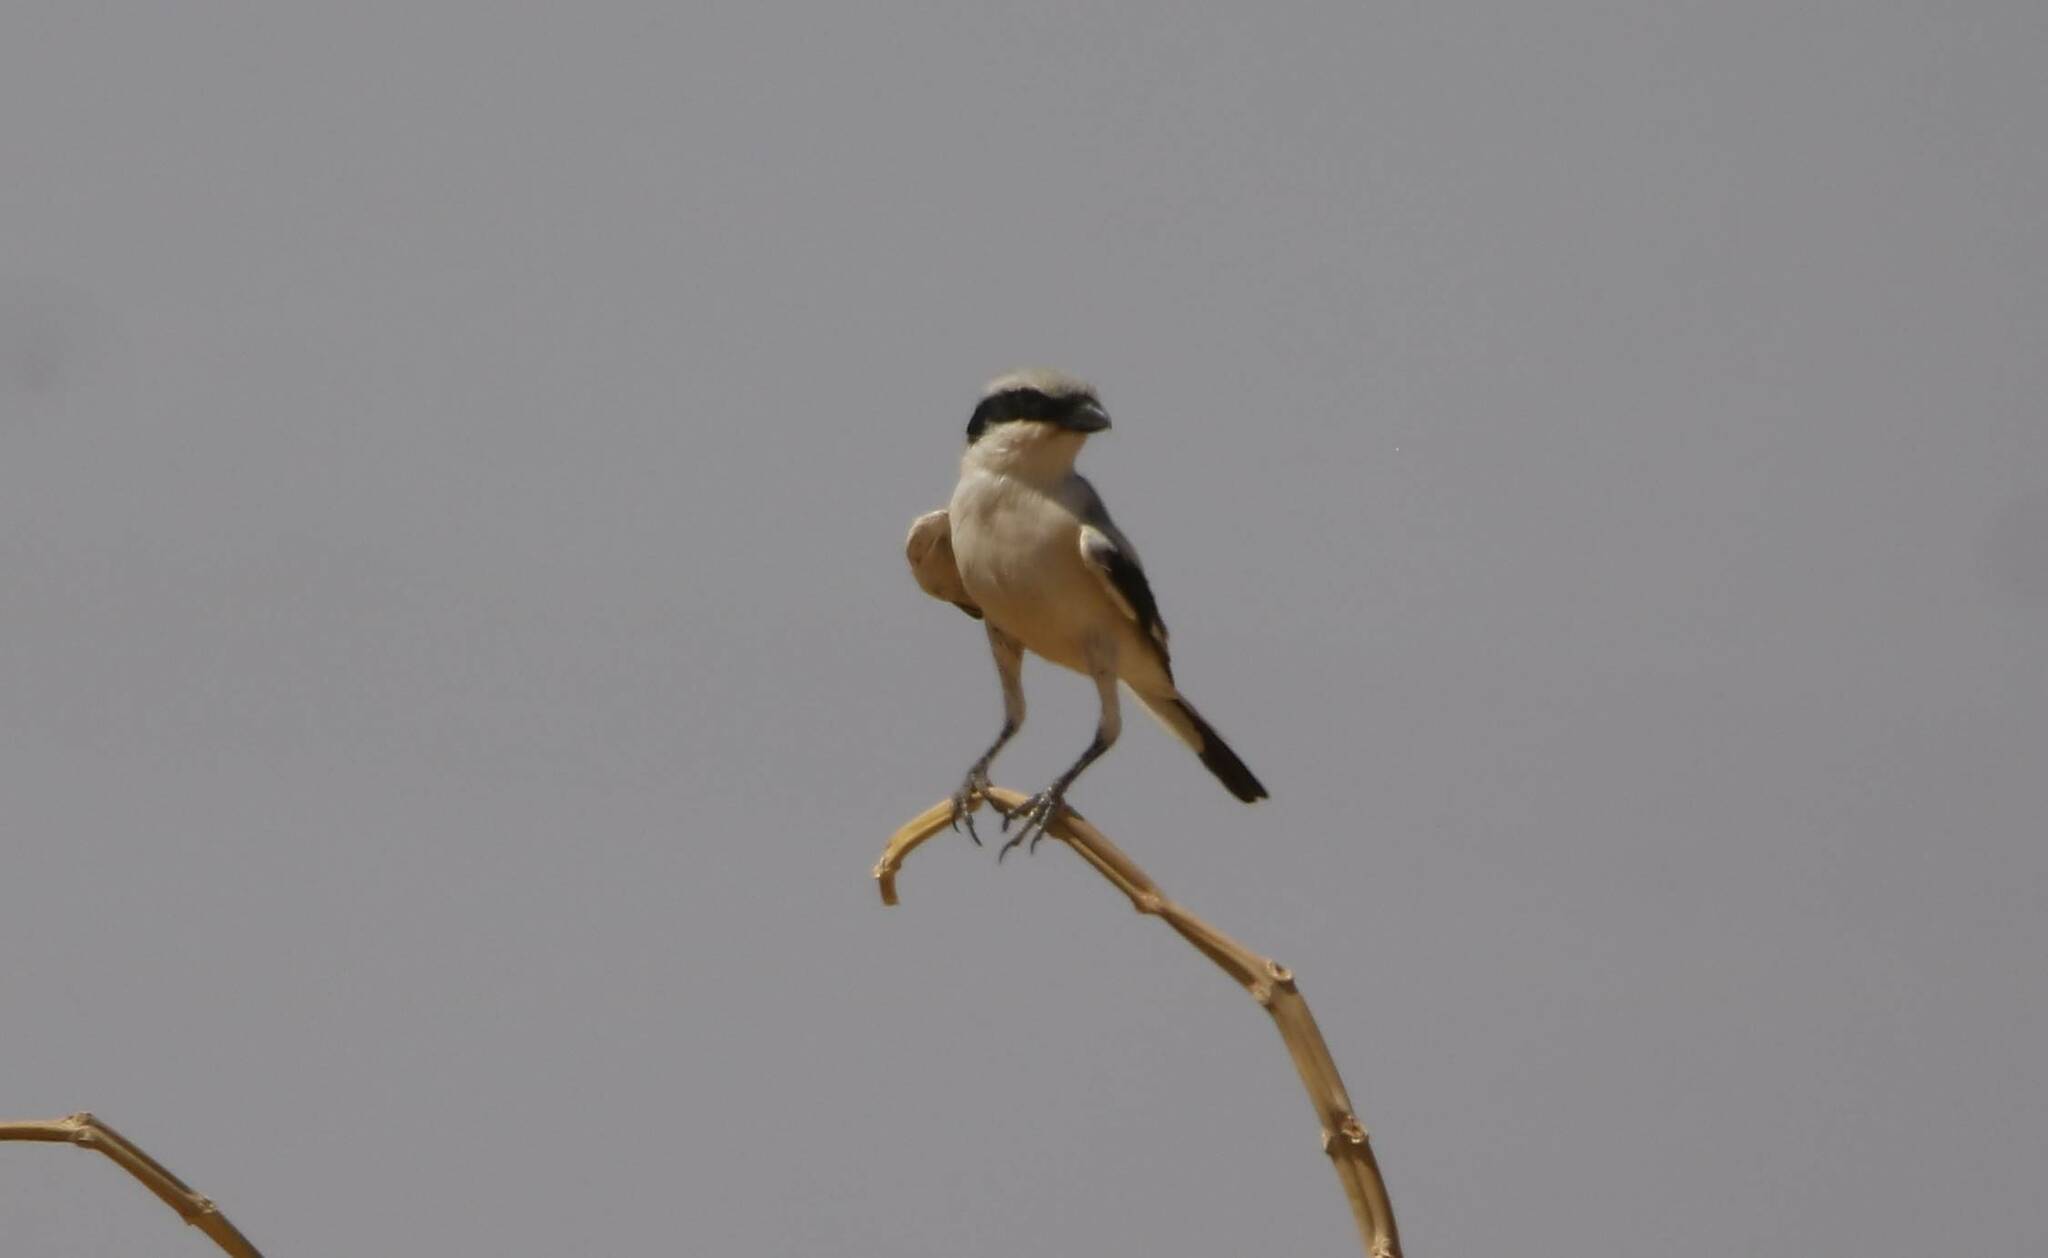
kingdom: Animalia
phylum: Chordata
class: Aves
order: Passeriformes
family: Laniidae
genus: Lanius
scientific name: Lanius excubitor
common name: Great grey shrike
